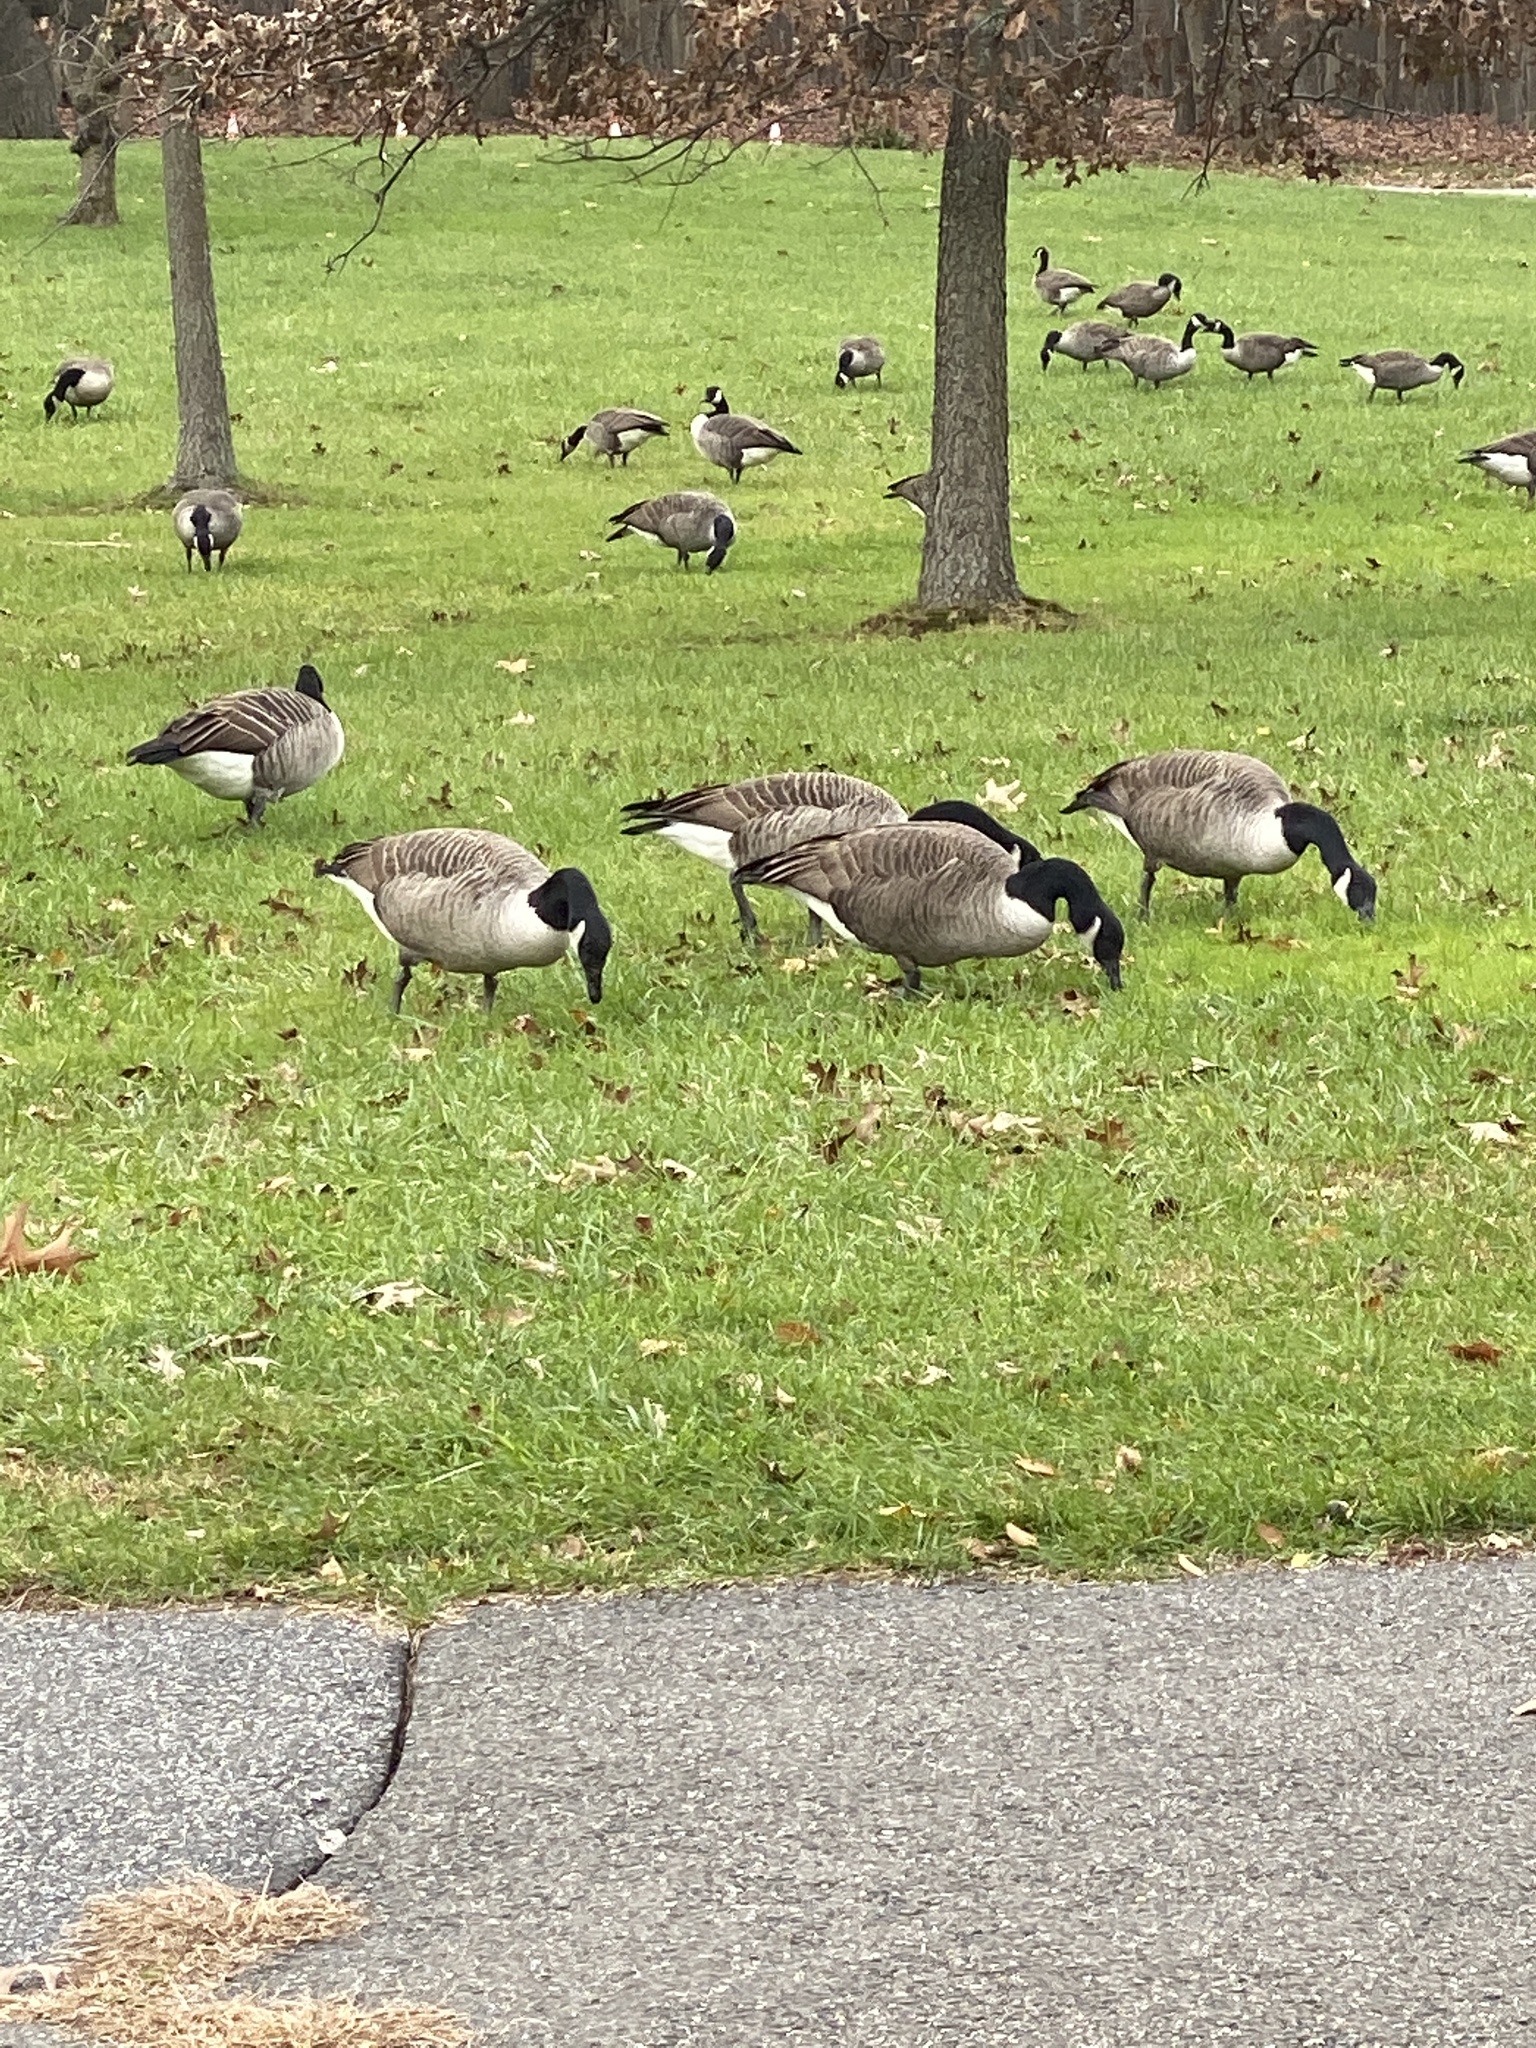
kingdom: Animalia
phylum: Chordata
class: Aves
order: Anseriformes
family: Anatidae
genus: Branta
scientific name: Branta canadensis
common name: Canada goose
